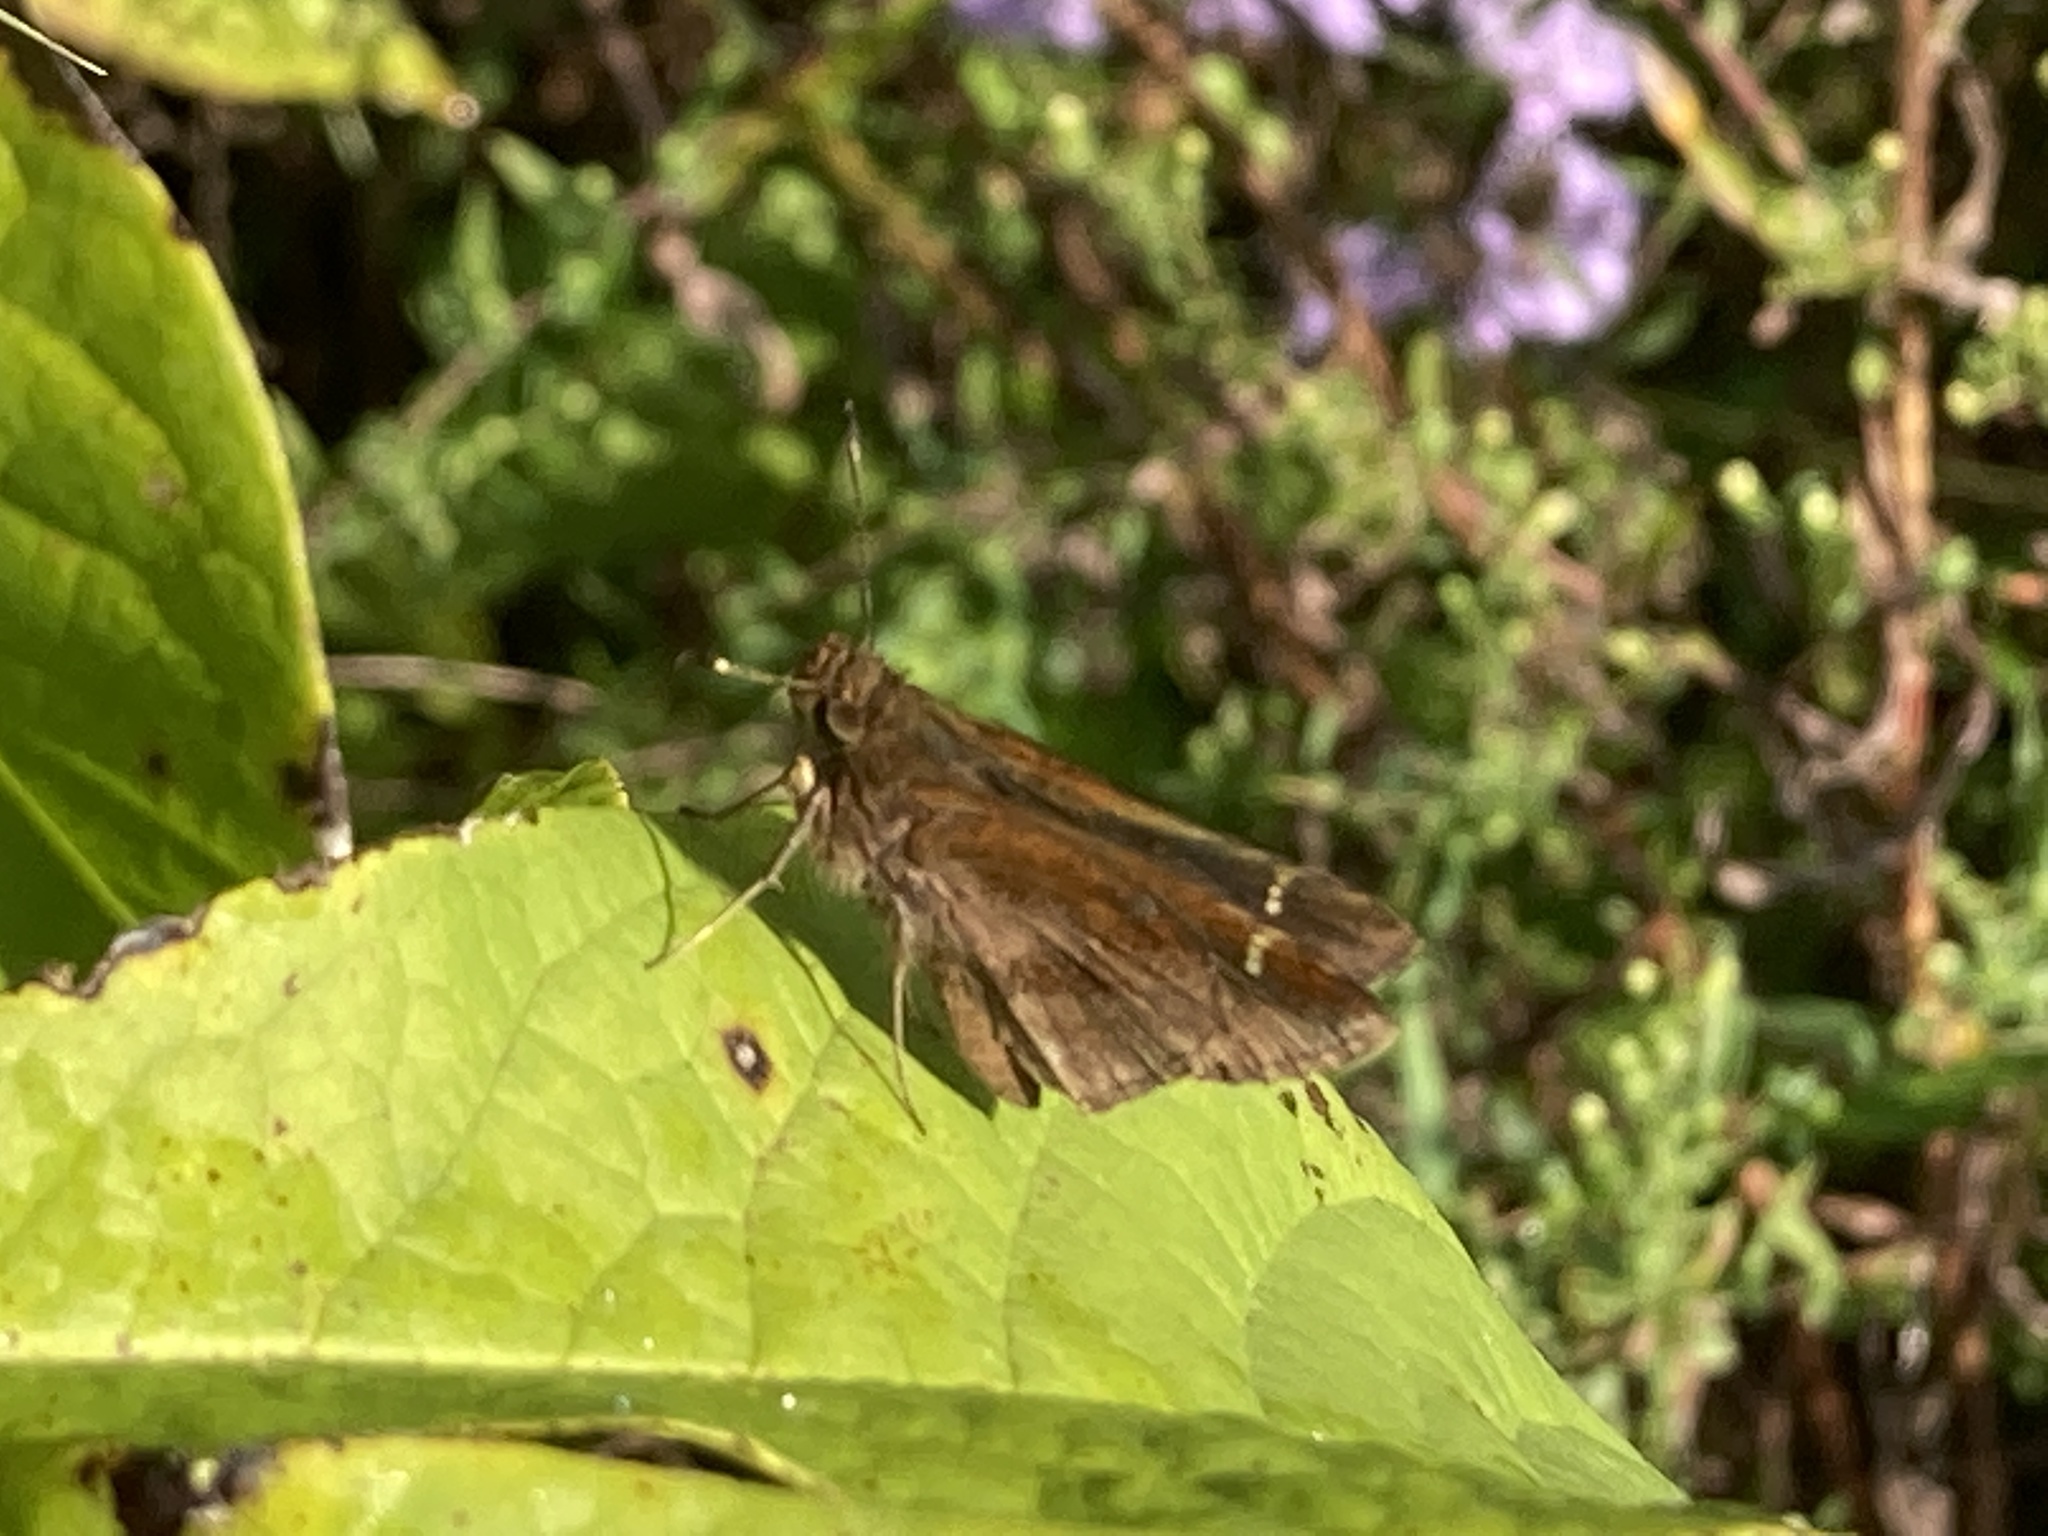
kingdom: Animalia
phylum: Arthropoda
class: Insecta
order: Lepidoptera
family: Hesperiidae
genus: Lerema
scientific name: Lerema accius
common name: Clouded skipper
